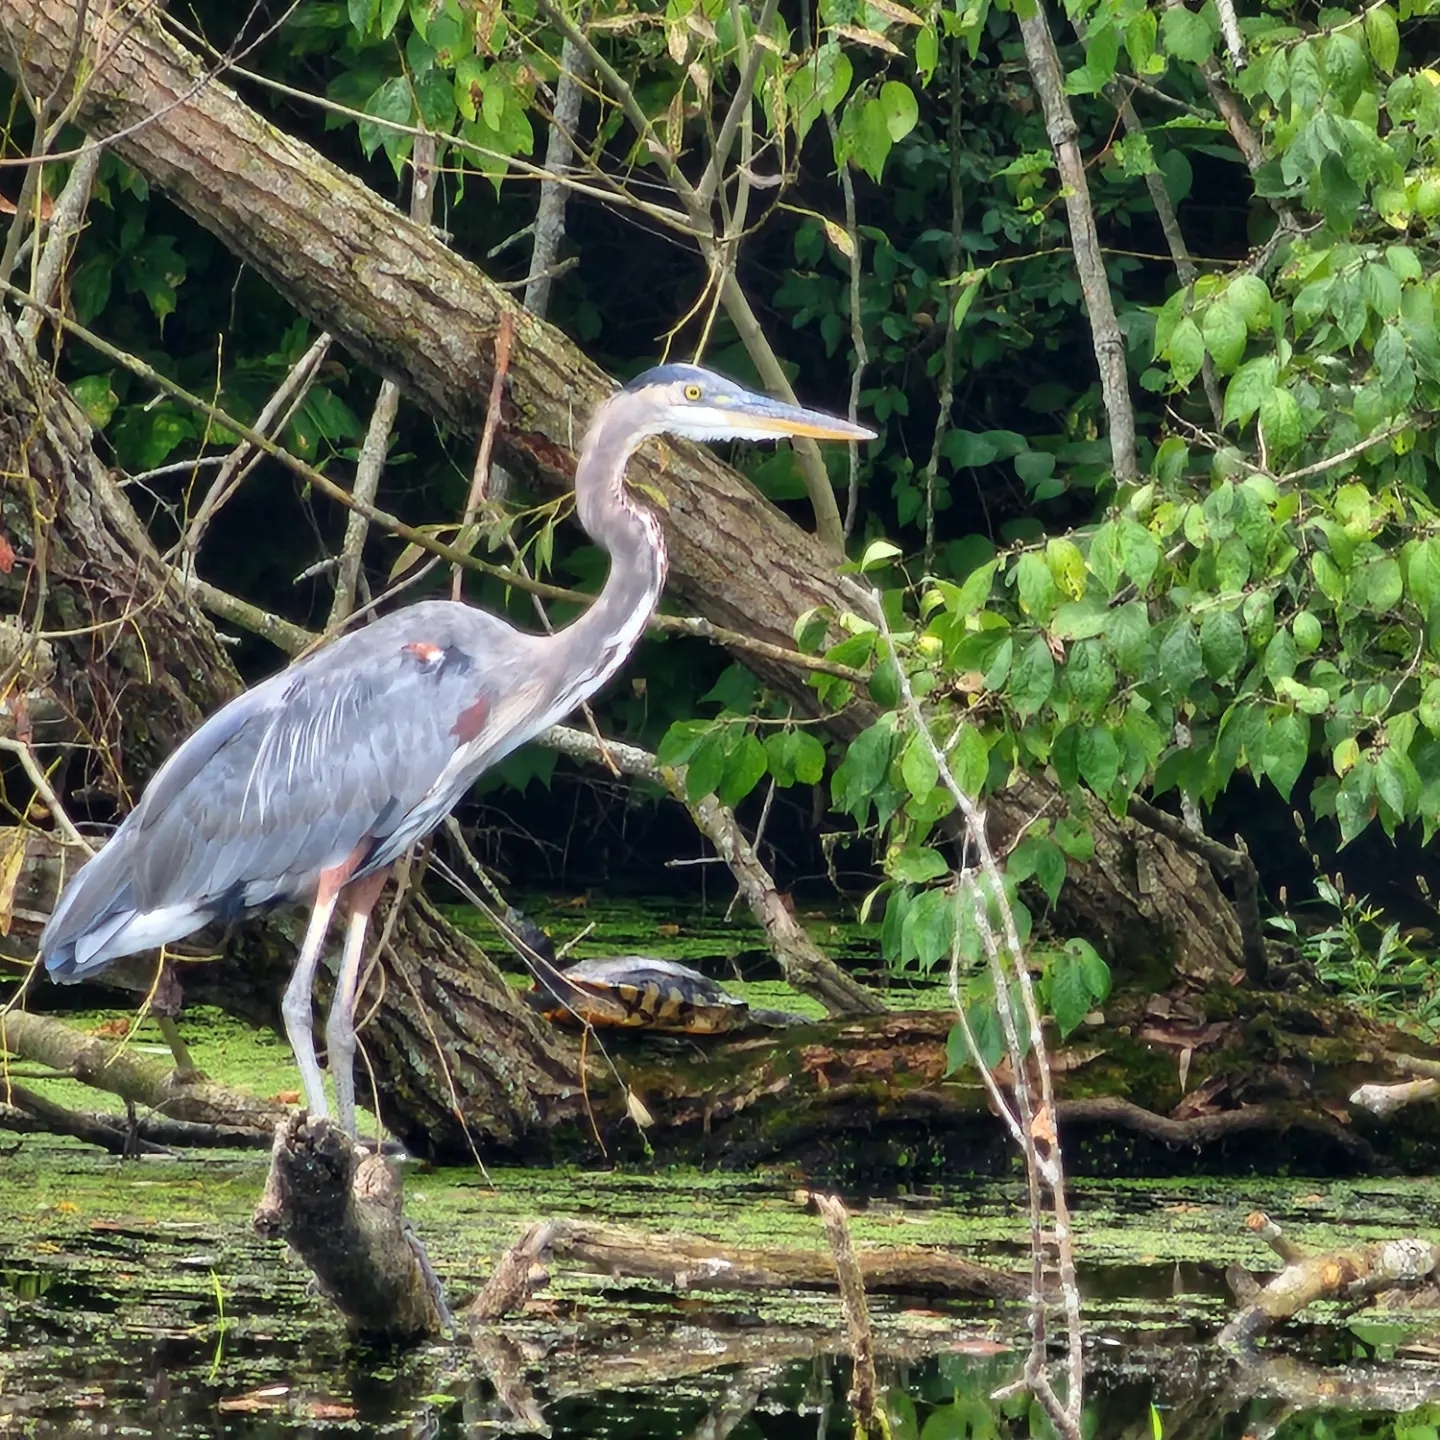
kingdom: Animalia
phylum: Chordata
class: Aves
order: Pelecaniformes
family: Ardeidae
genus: Ardea
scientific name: Ardea herodias
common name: Great blue heron
